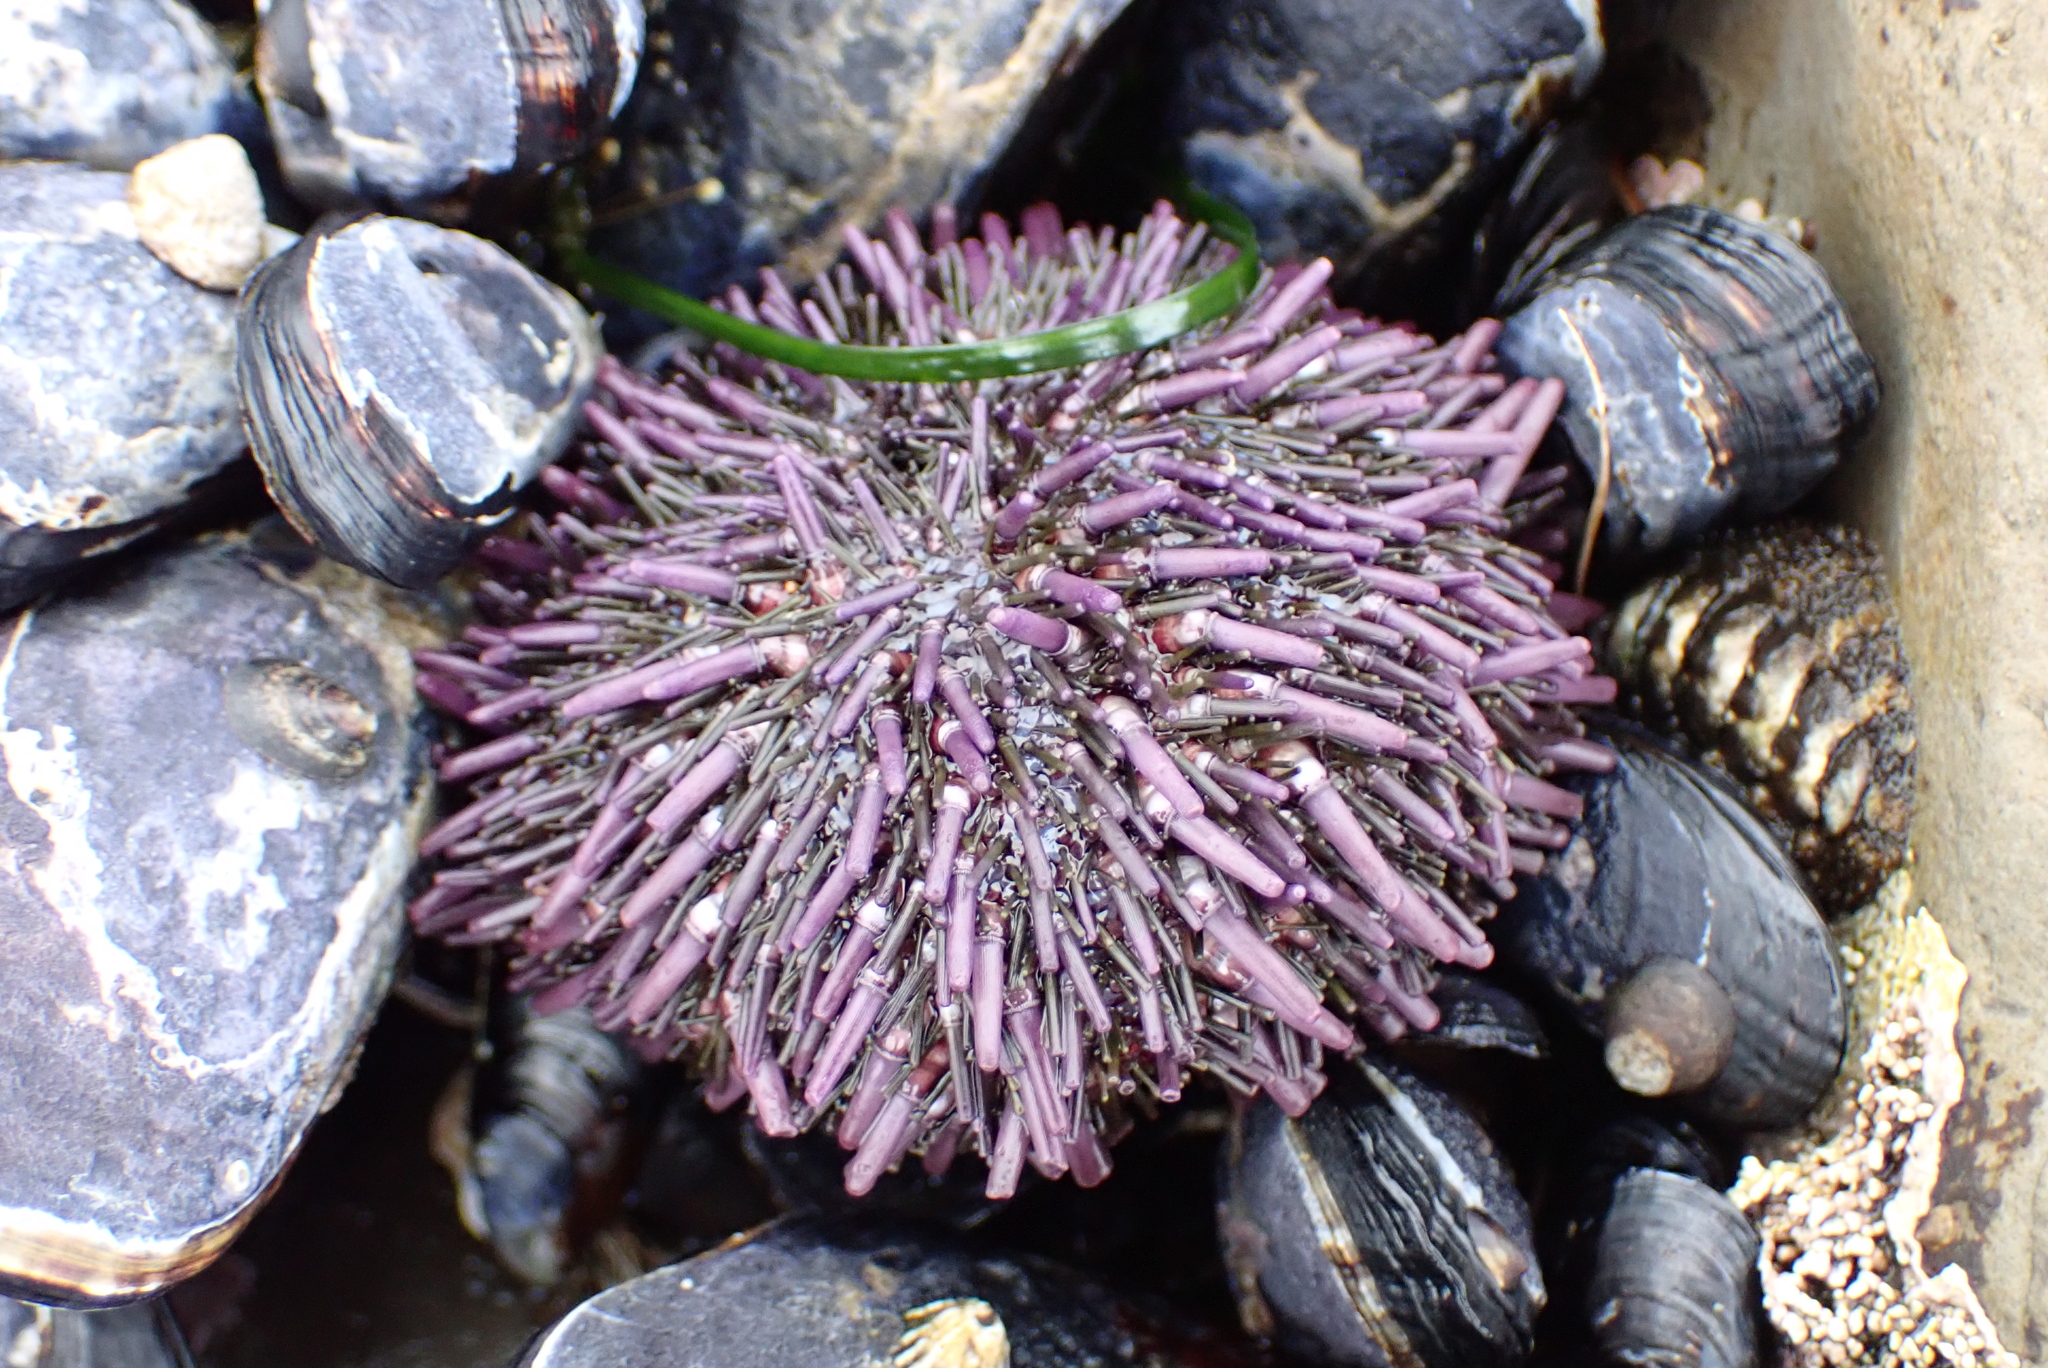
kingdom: Animalia
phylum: Echinodermata
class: Echinoidea
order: Camarodonta
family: Strongylocentrotidae
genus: Strongylocentrotus
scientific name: Strongylocentrotus purpuratus
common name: Purple sea urchin
